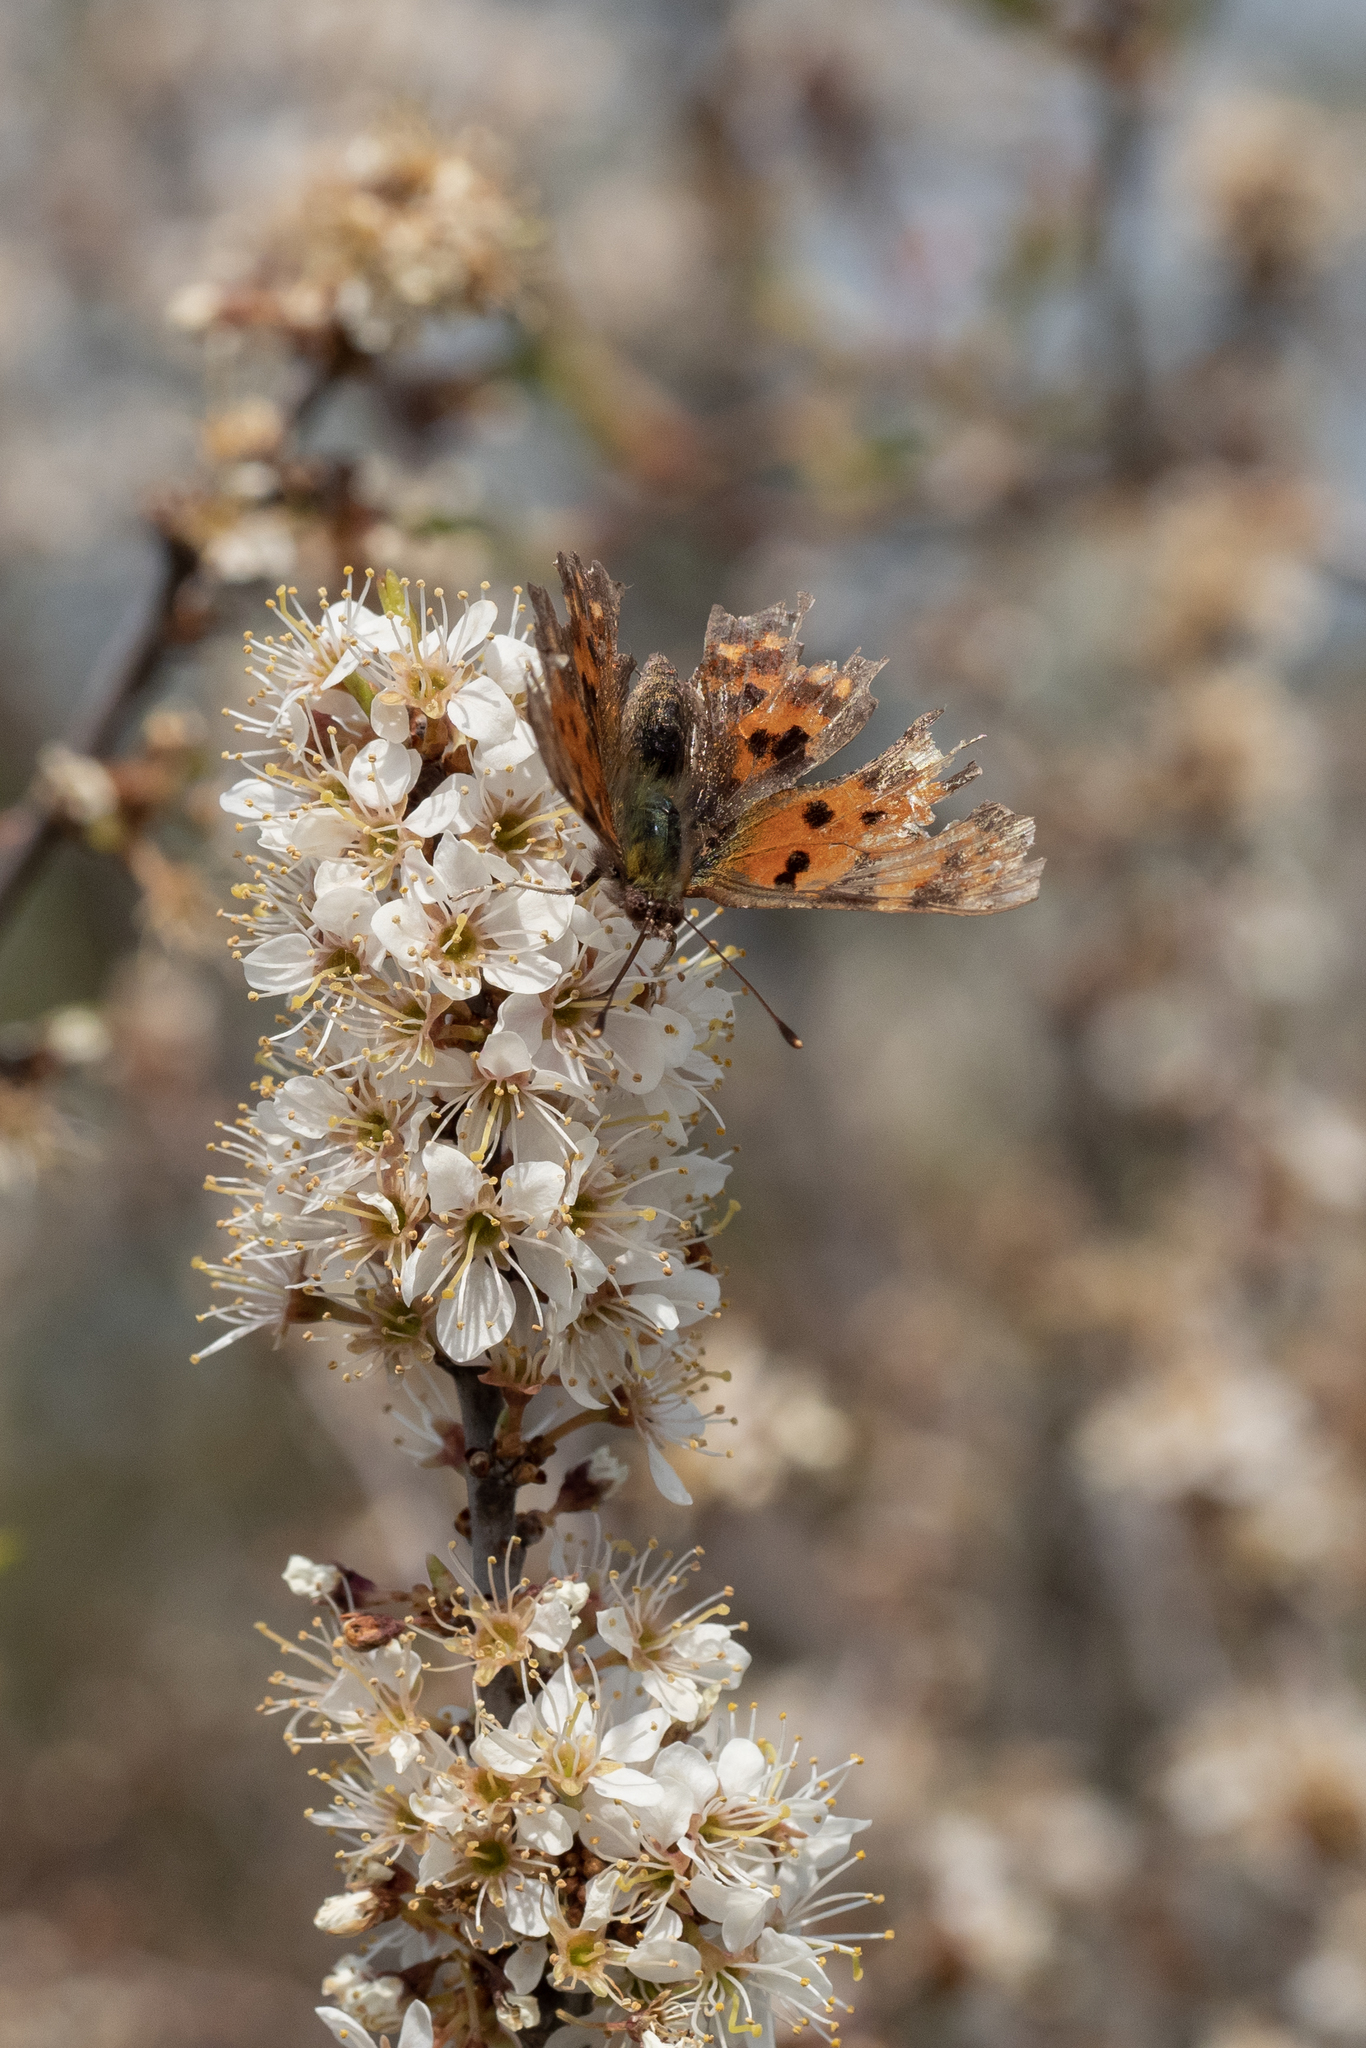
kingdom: Animalia
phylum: Arthropoda
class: Insecta
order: Lepidoptera
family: Nymphalidae
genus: Polygonia
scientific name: Polygonia c-album
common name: Comma
